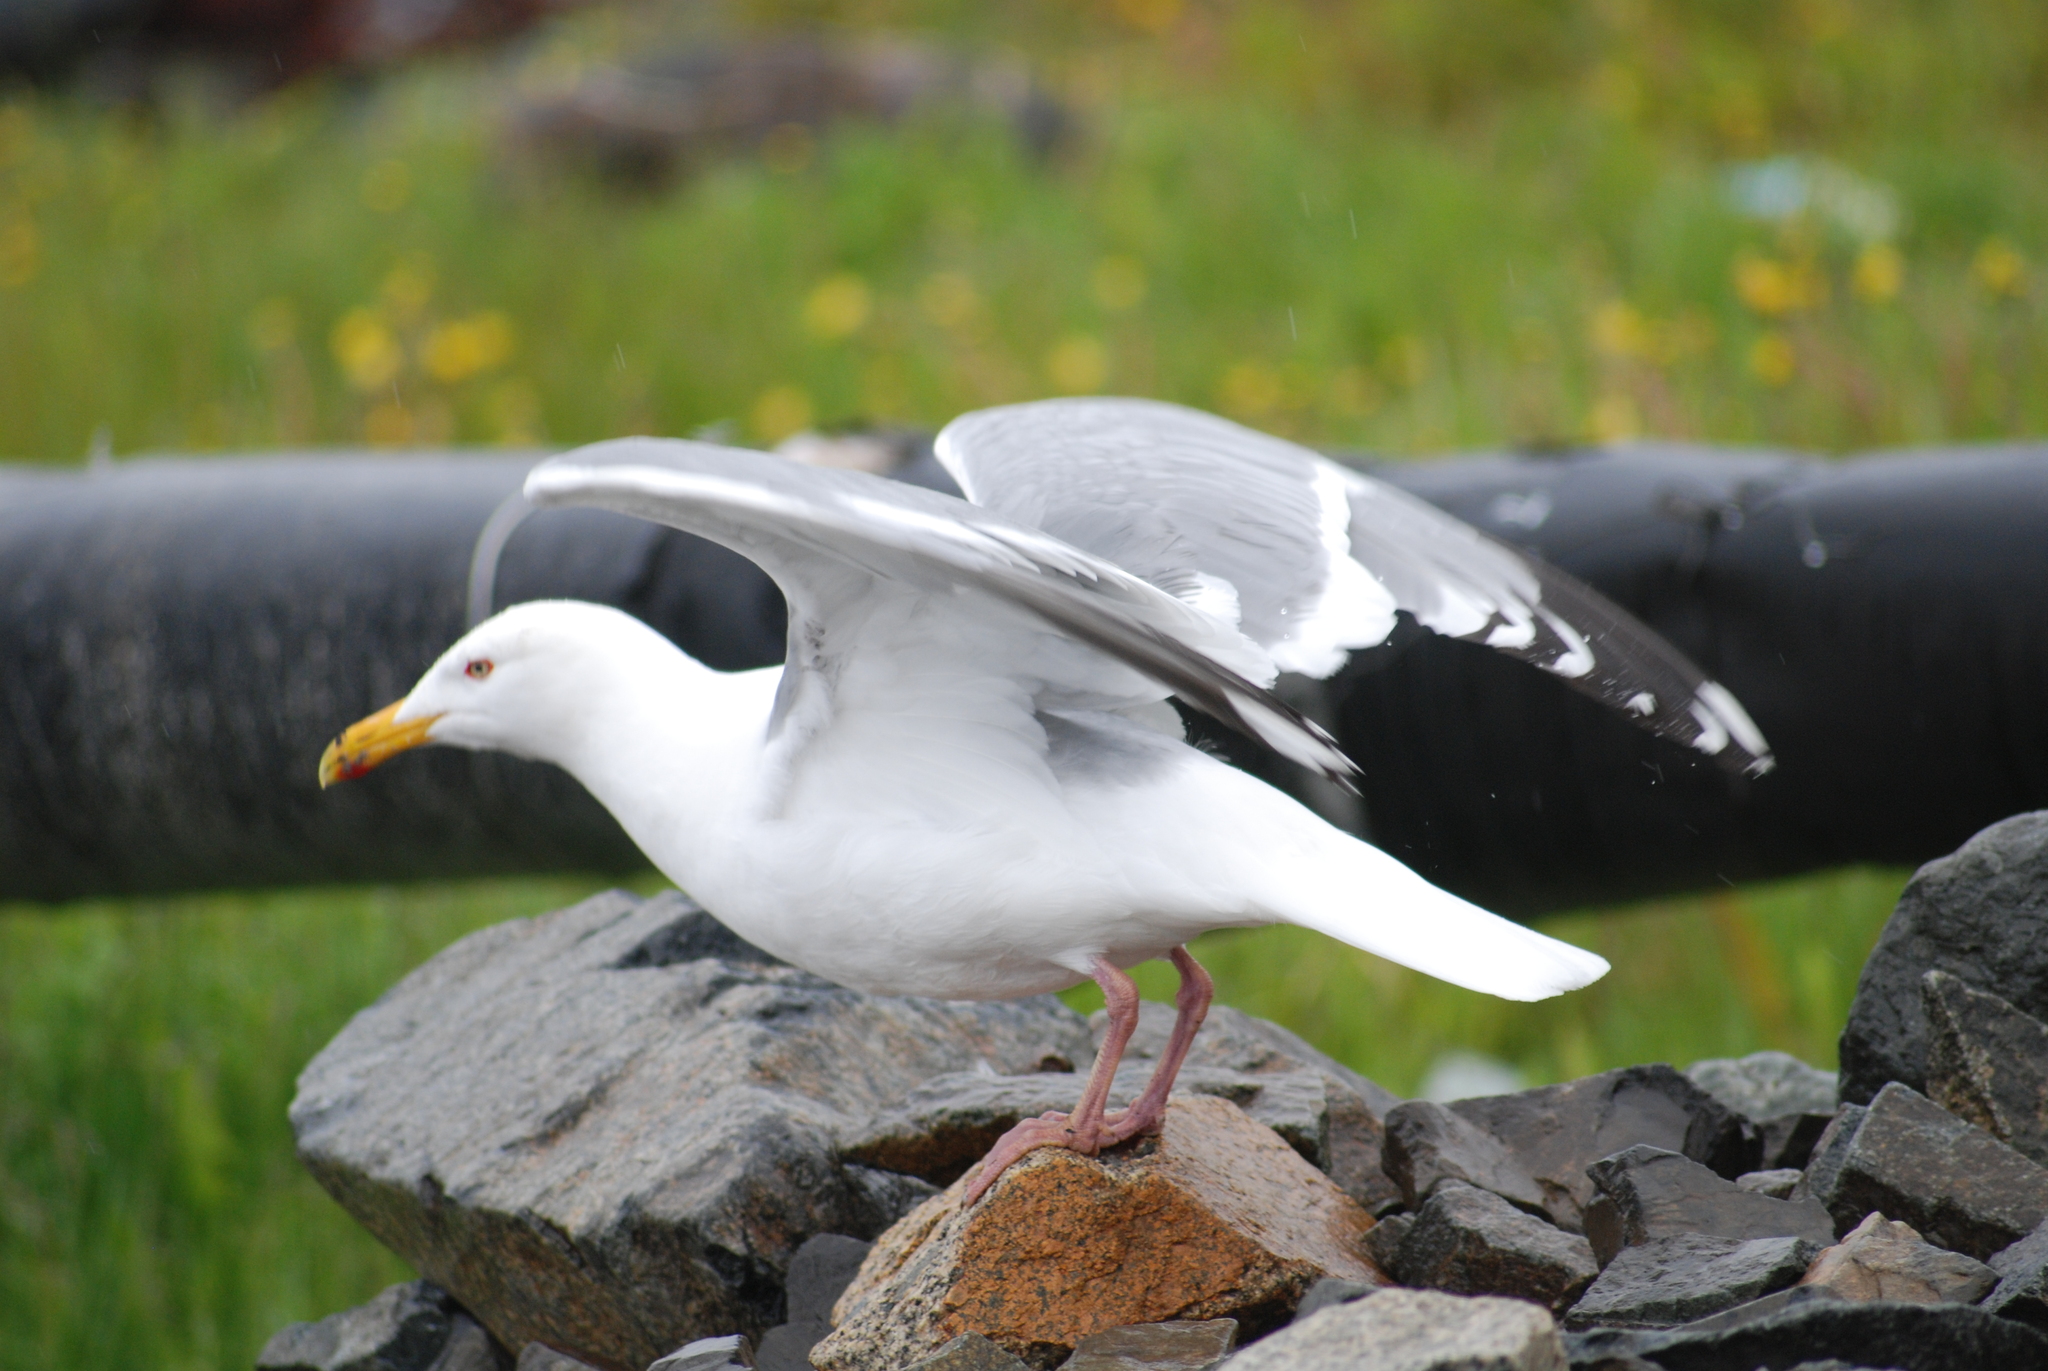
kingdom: Animalia
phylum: Chordata
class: Aves
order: Charadriiformes
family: Laridae
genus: Larus
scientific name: Larus argentatus
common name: Herring gull
